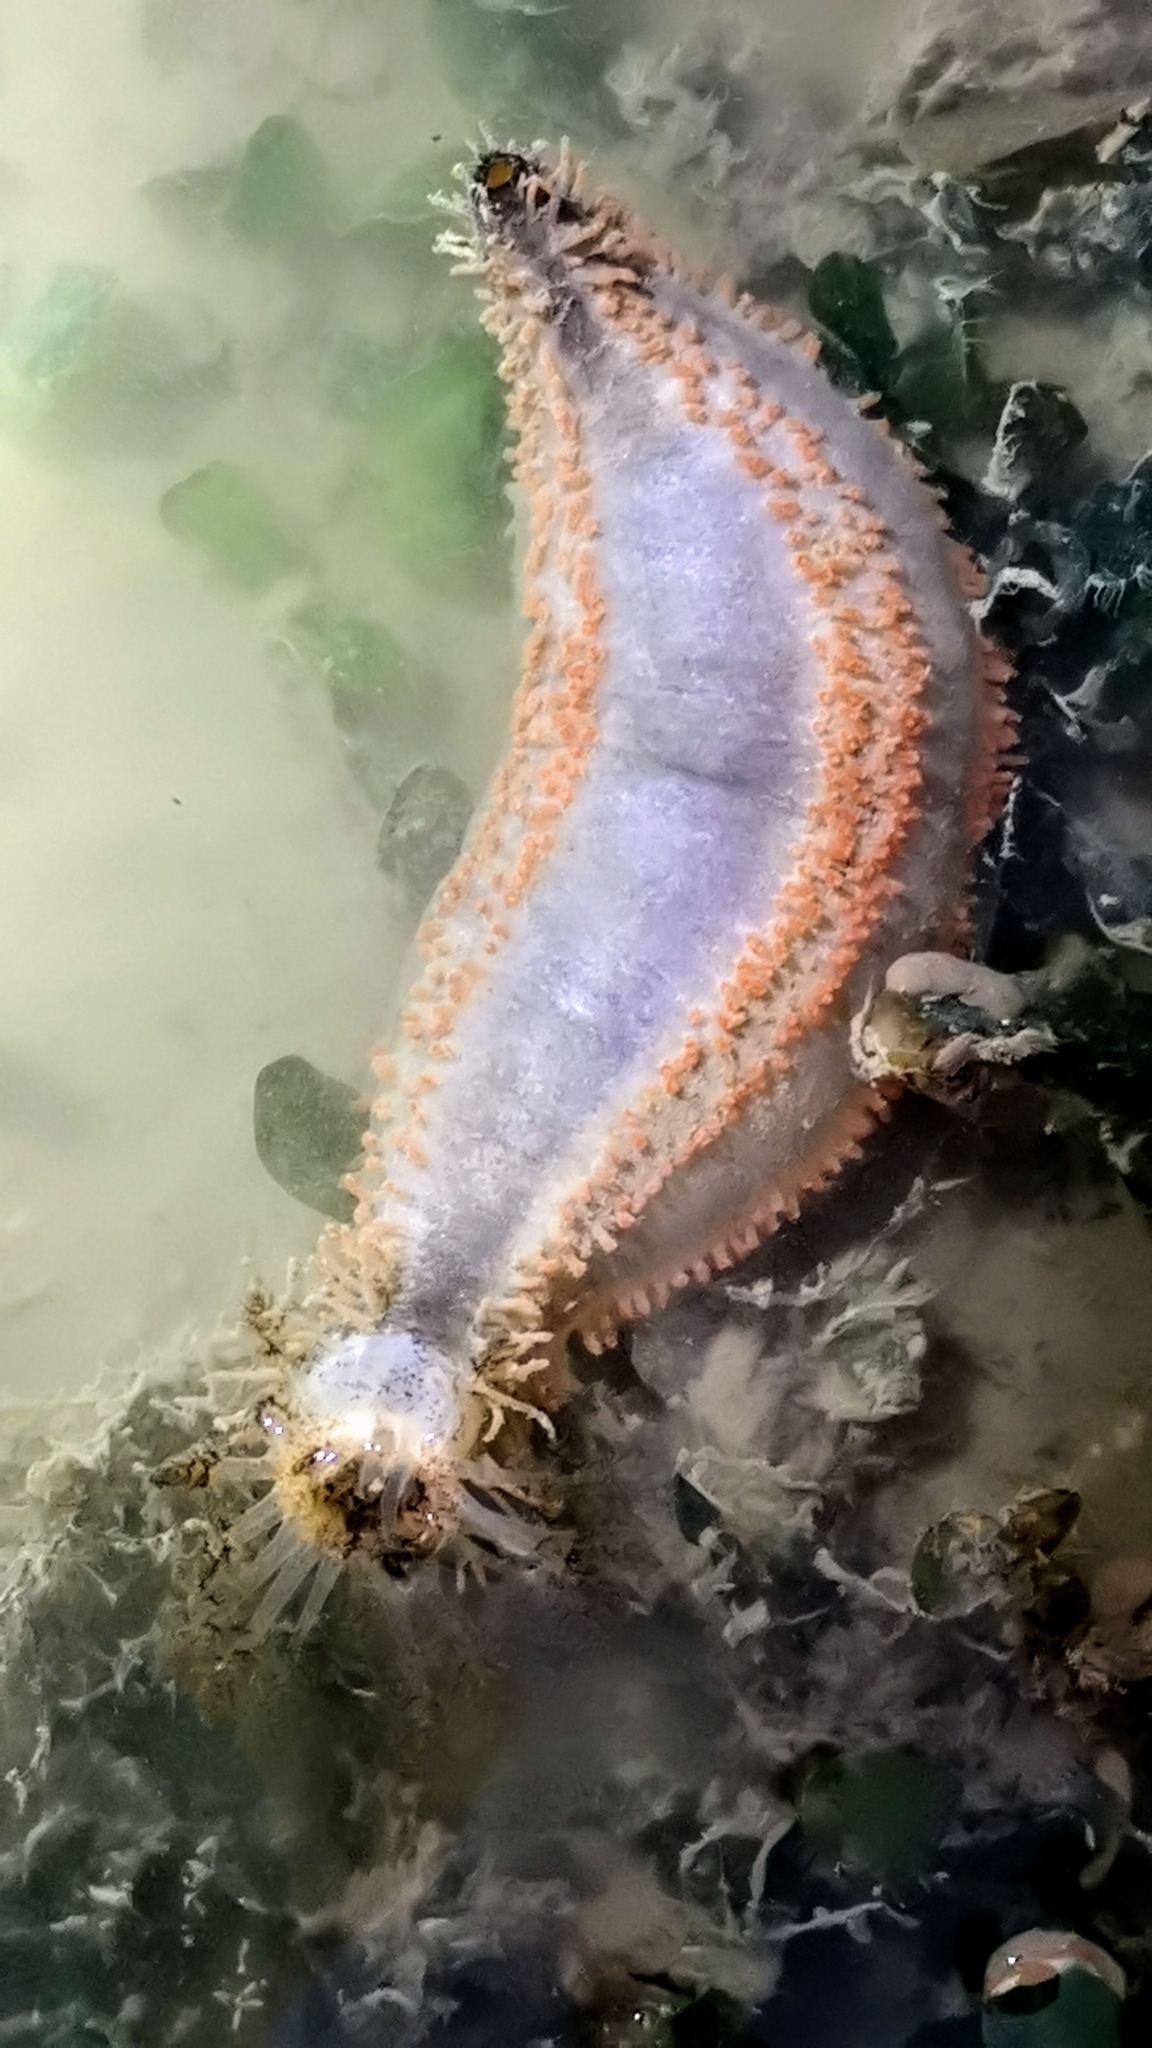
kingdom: Animalia
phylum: Echinodermata
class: Holothuroidea
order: Dendrochirotida
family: Cucumariidae
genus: Mensamaria
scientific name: Mensamaria intercedens
